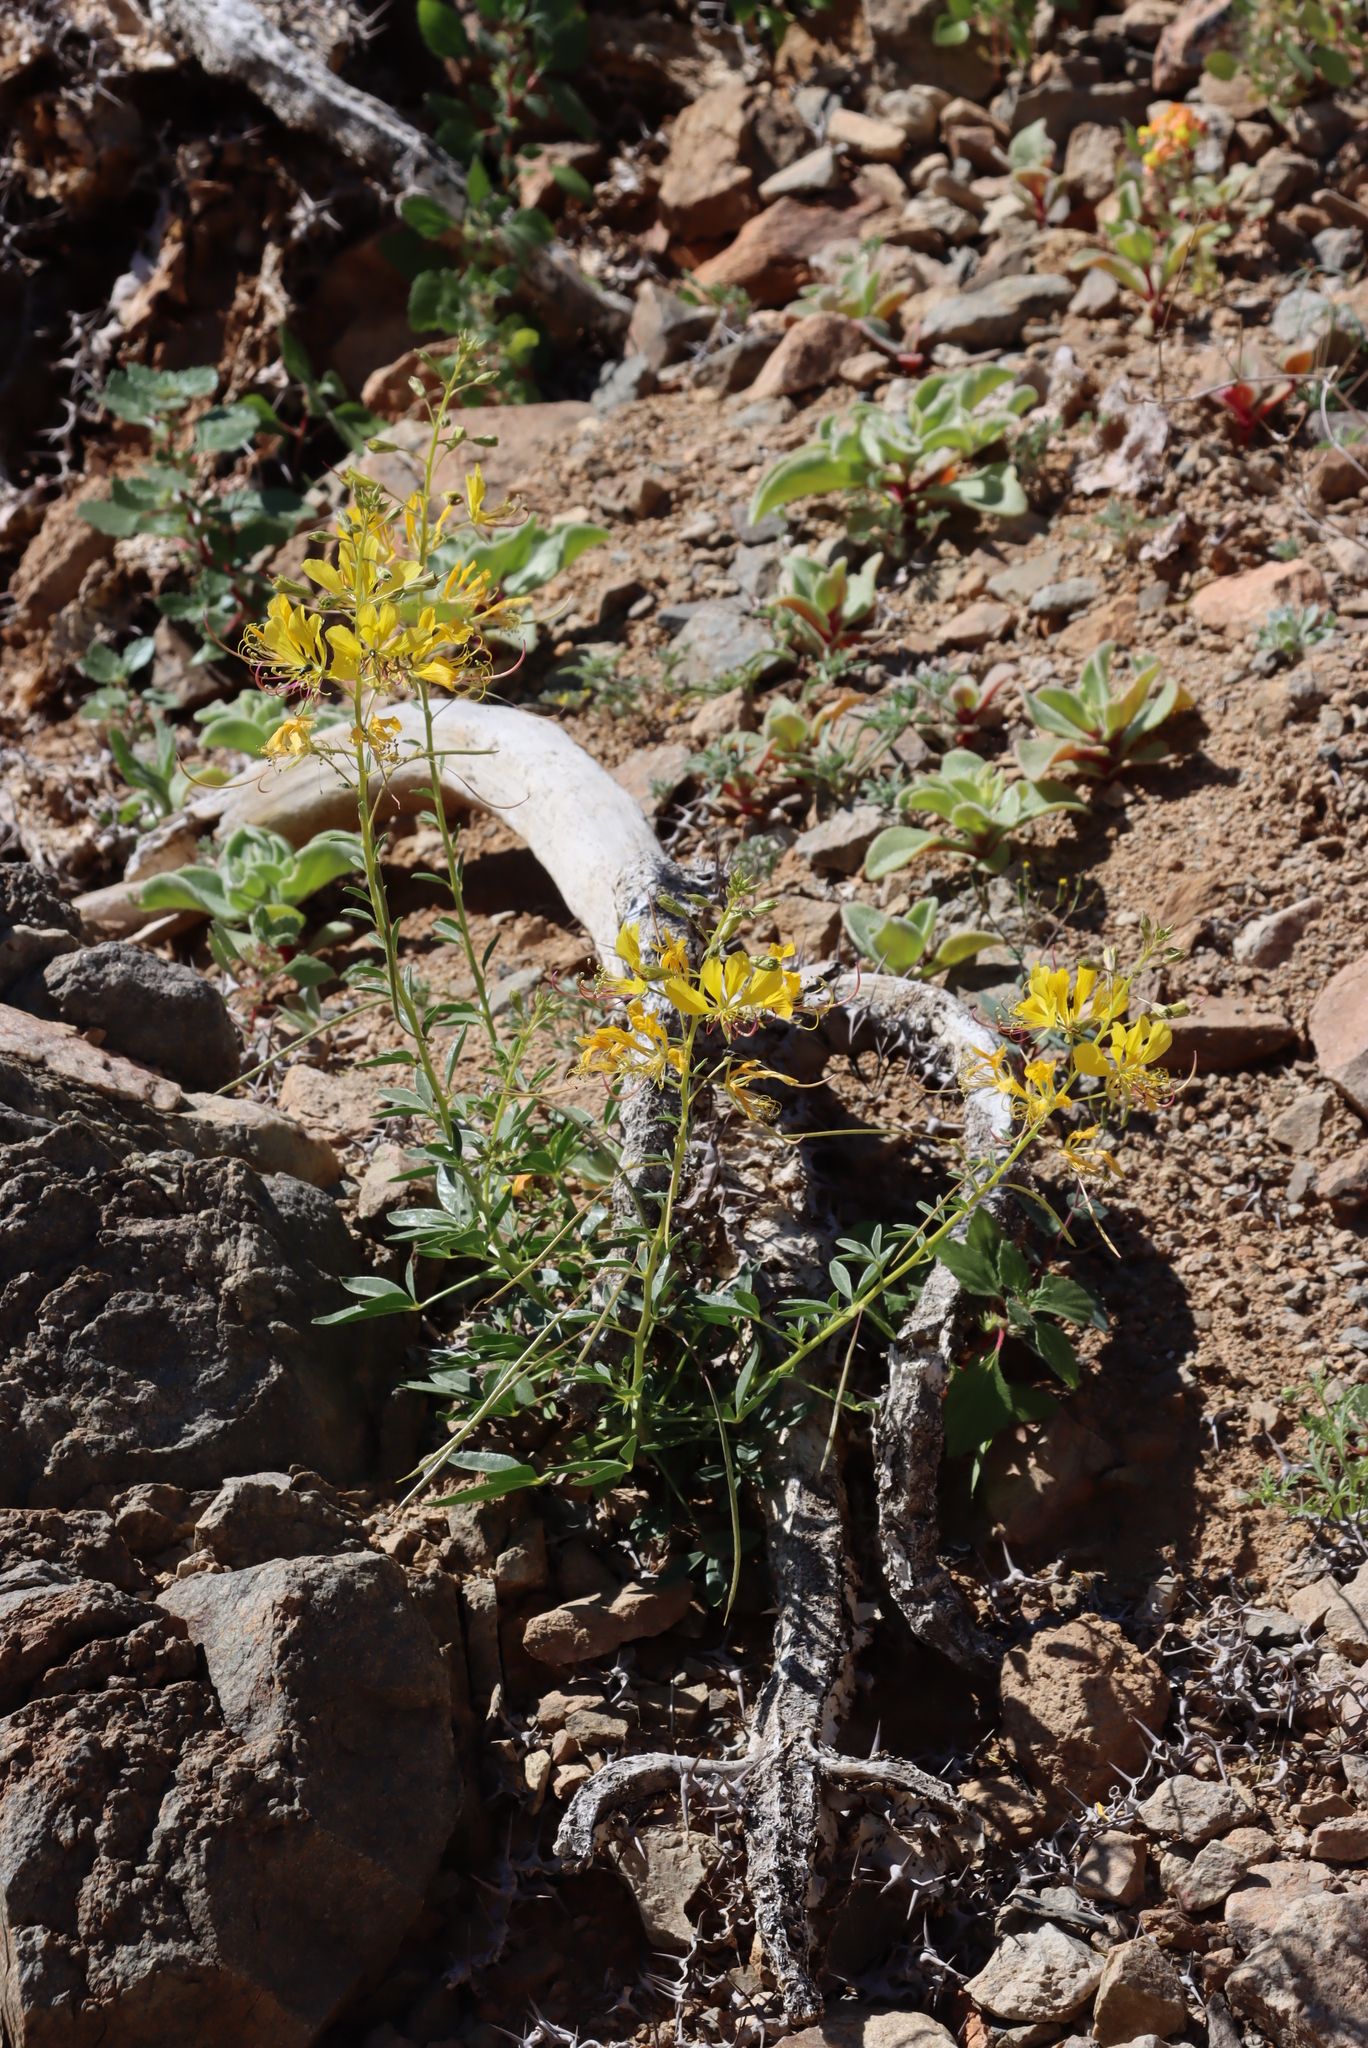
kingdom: Plantae
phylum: Tracheophyta
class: Magnoliopsida
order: Brassicales
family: Cleomaceae
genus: Kersia
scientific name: Kersia foliosa
